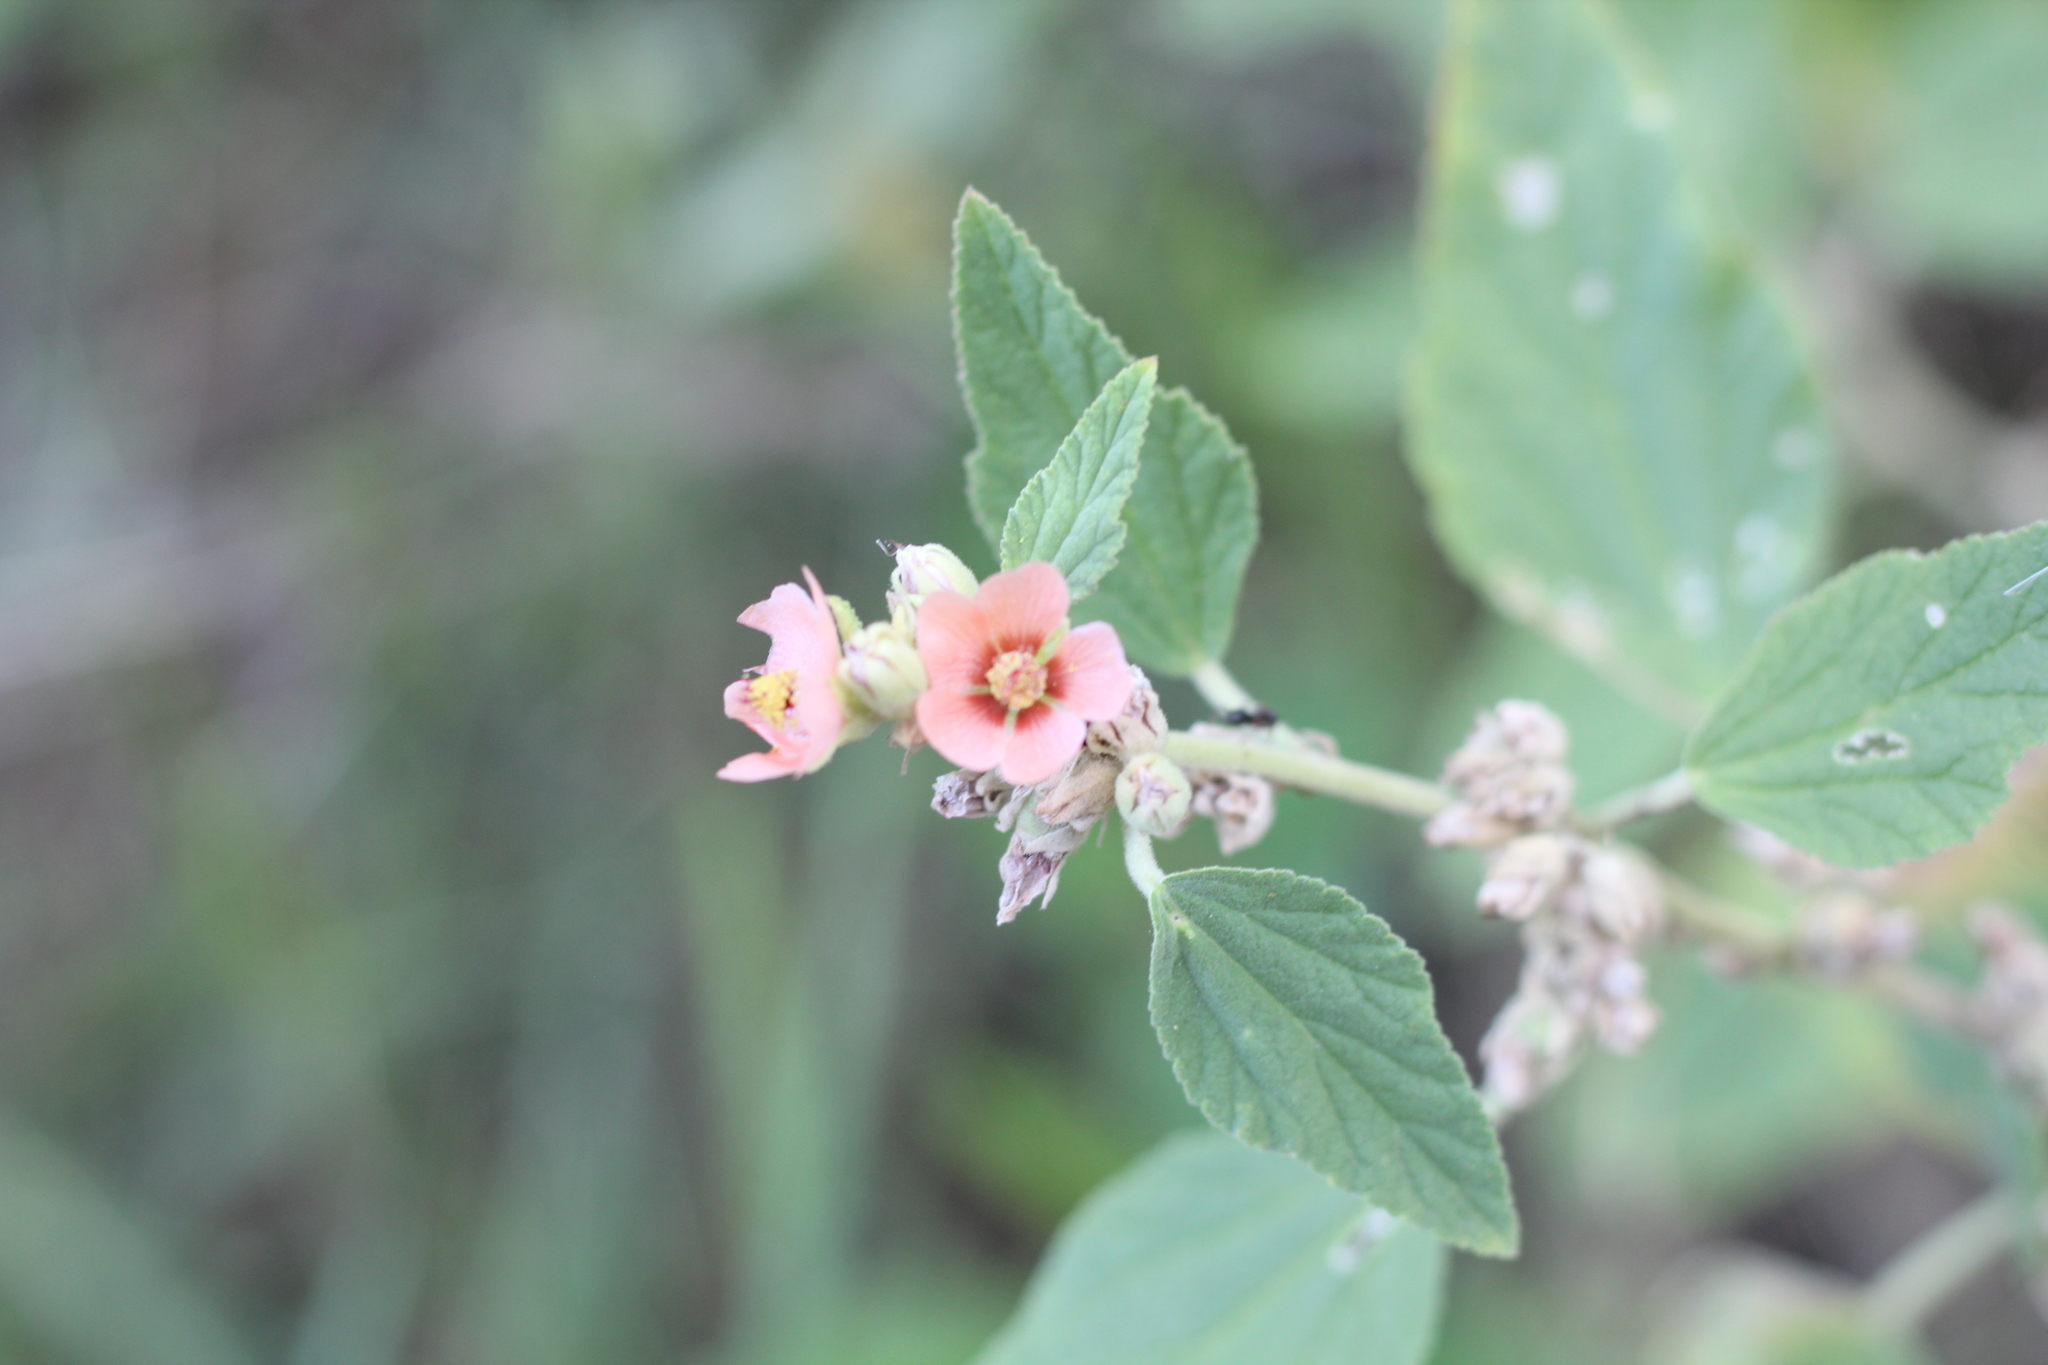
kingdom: Plantae
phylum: Tracheophyta
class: Magnoliopsida
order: Malvales
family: Malvaceae
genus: Sphaeralcea
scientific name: Sphaeralcea bonariensis
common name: Latin globemallow
